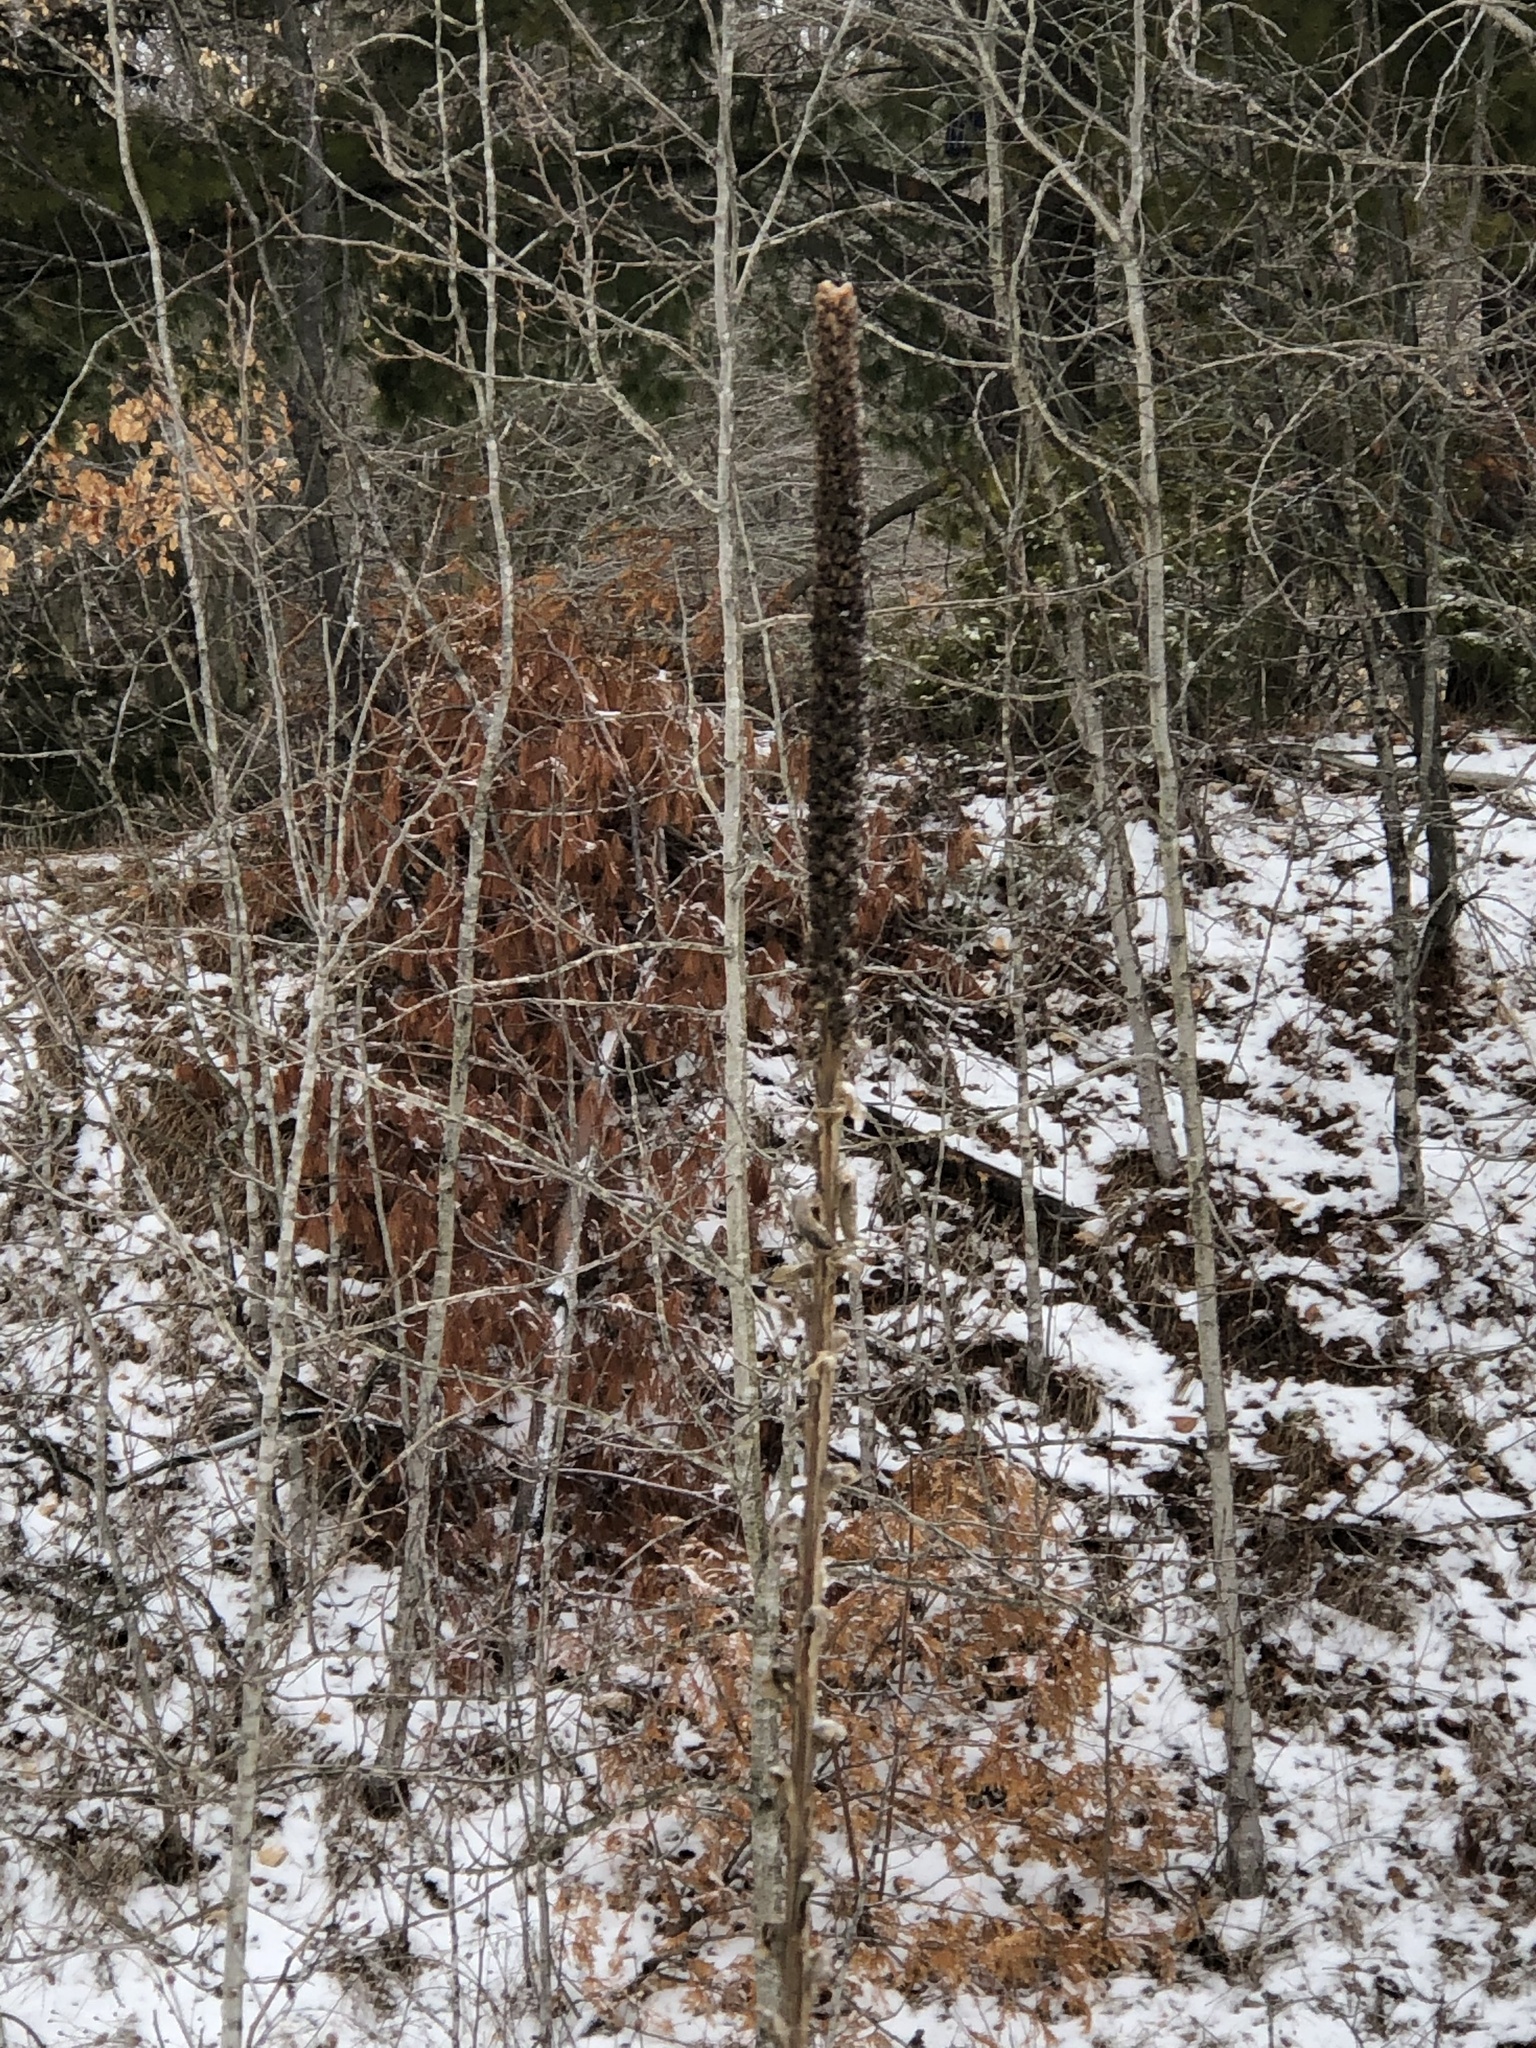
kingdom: Plantae
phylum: Tracheophyta
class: Magnoliopsida
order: Lamiales
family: Scrophulariaceae
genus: Verbascum
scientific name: Verbascum thapsus
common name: Common mullein
